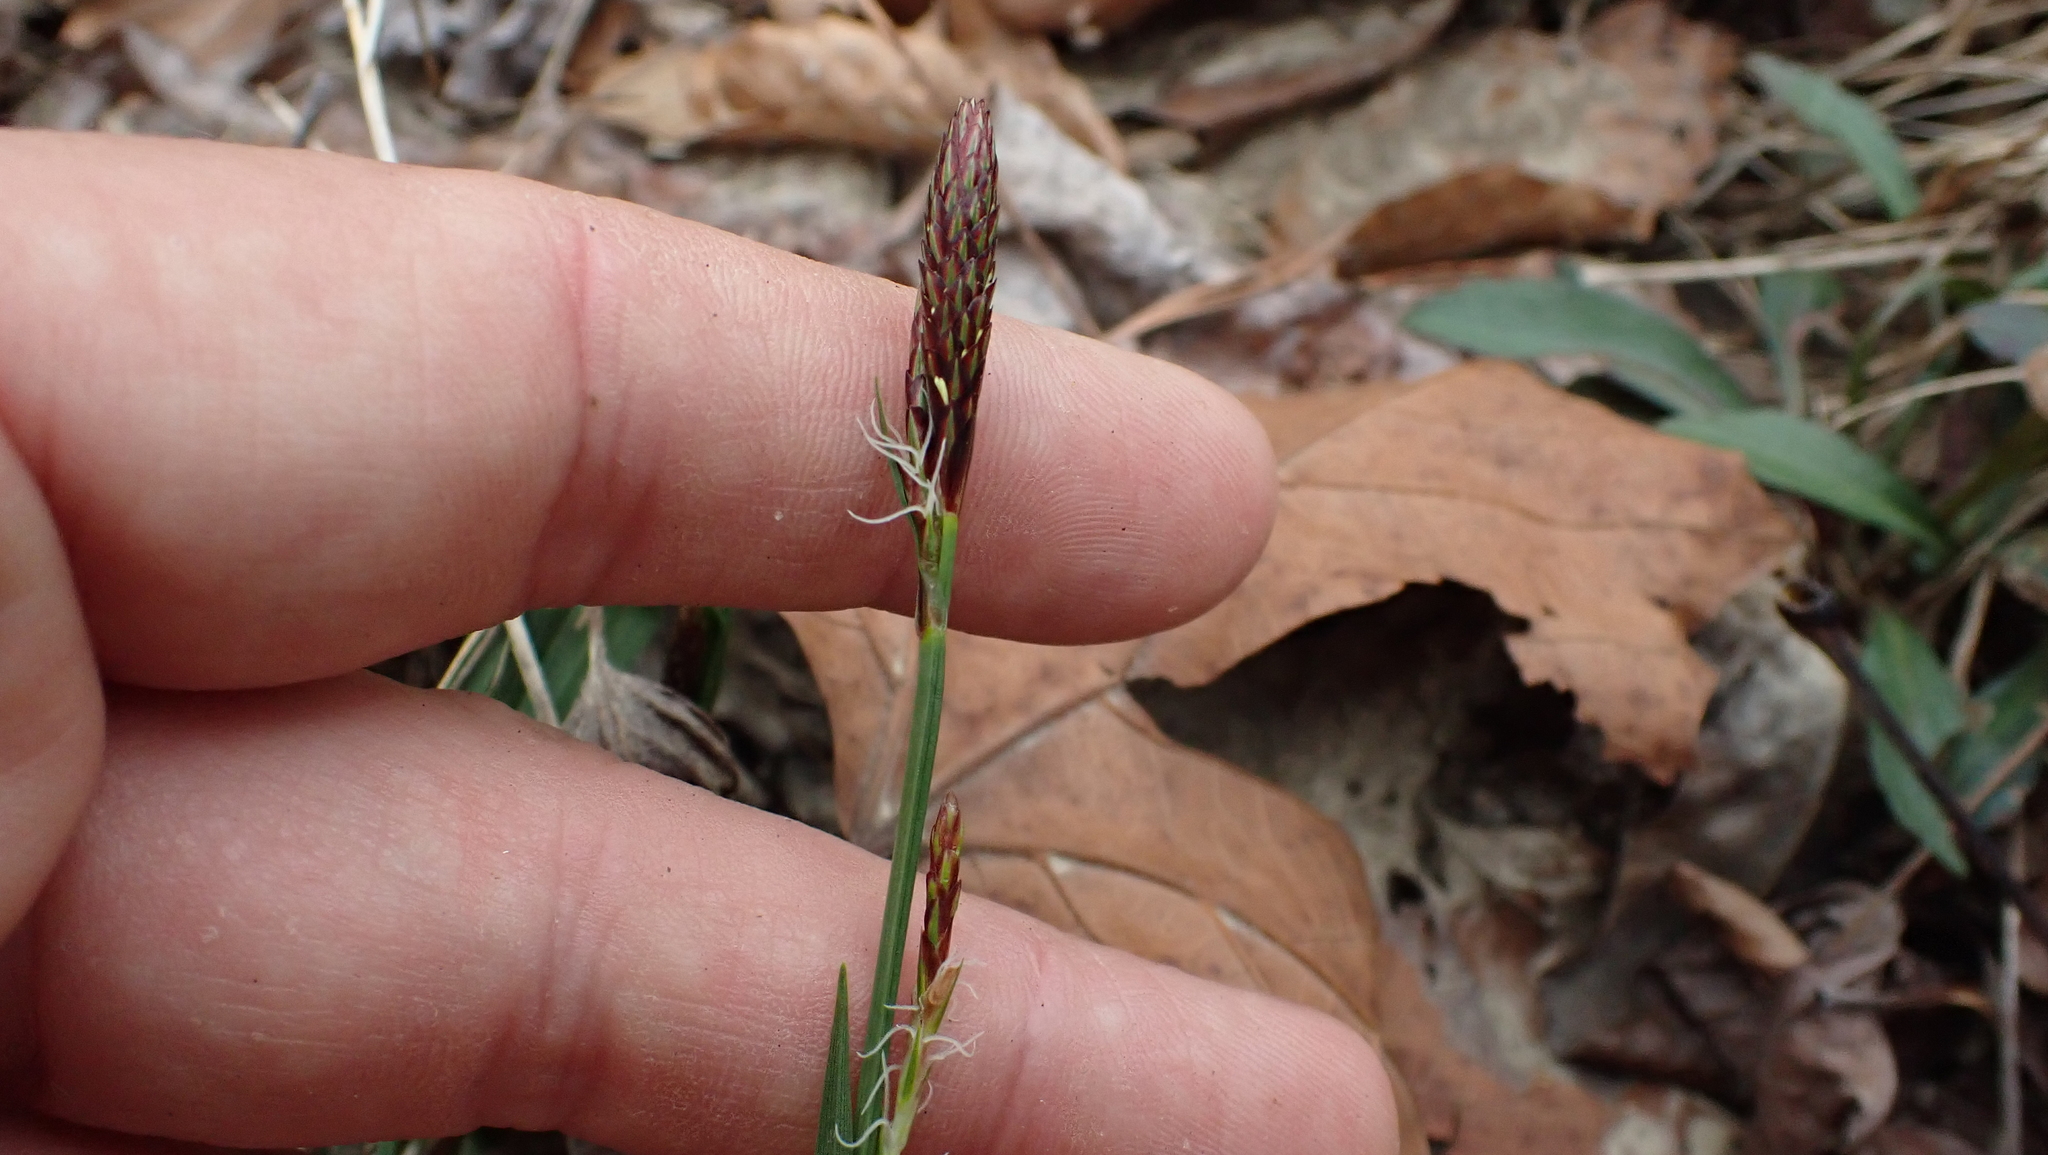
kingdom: Plantae
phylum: Tracheophyta
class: Liliopsida
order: Poales
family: Cyperaceae
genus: Carex
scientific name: Carex careyana
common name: Carey's sedge
